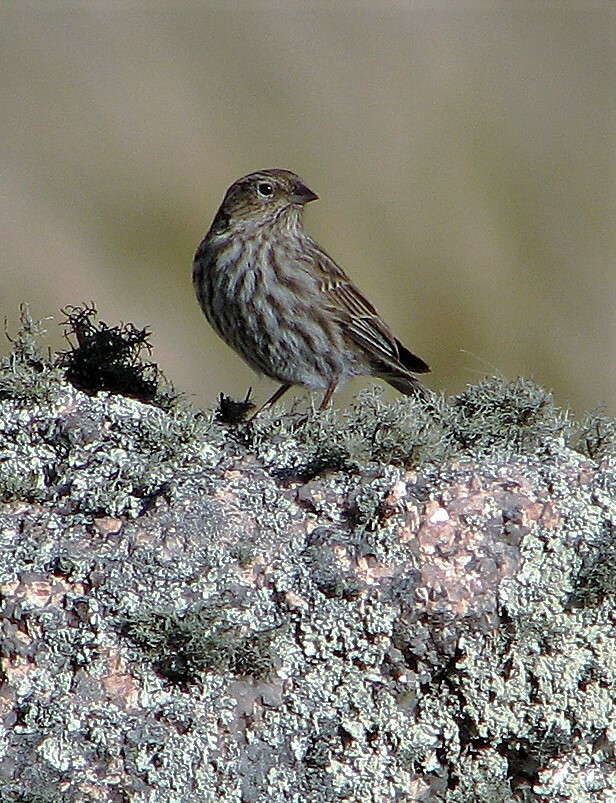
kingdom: Animalia
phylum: Chordata
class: Aves
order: Passeriformes
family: Thraupidae
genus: Geospizopsis
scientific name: Geospizopsis unicolor
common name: Plumbeous sierra-finch
